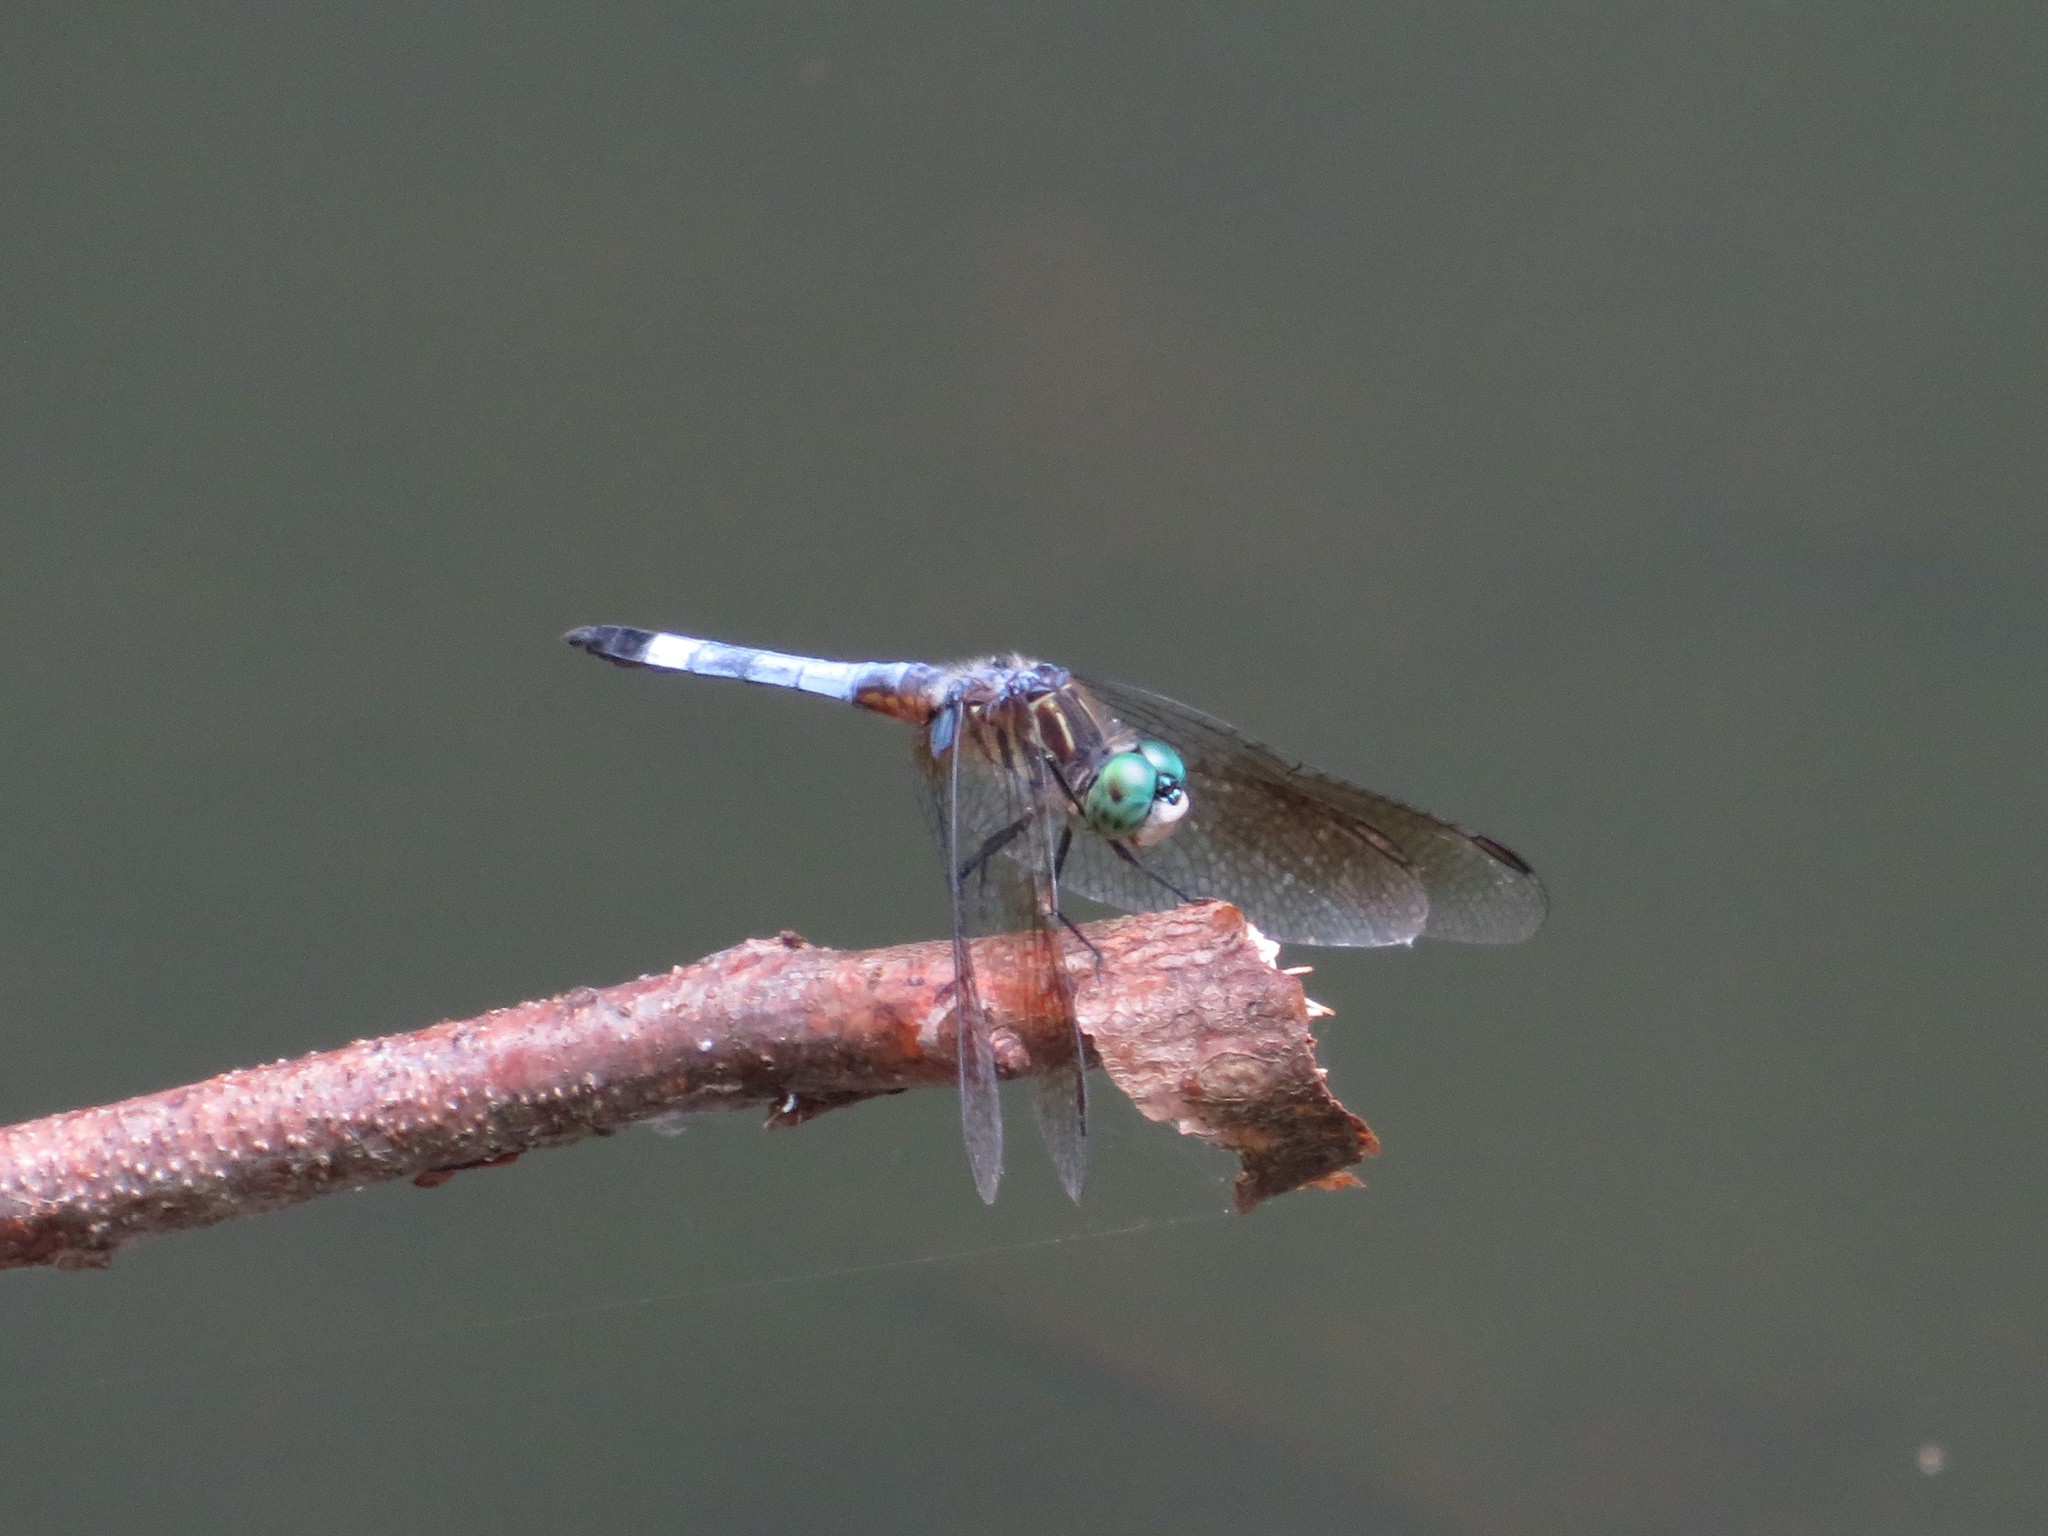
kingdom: Animalia
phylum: Arthropoda
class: Insecta
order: Odonata
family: Libellulidae
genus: Pachydiplax
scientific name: Pachydiplax longipennis
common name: Blue dasher
